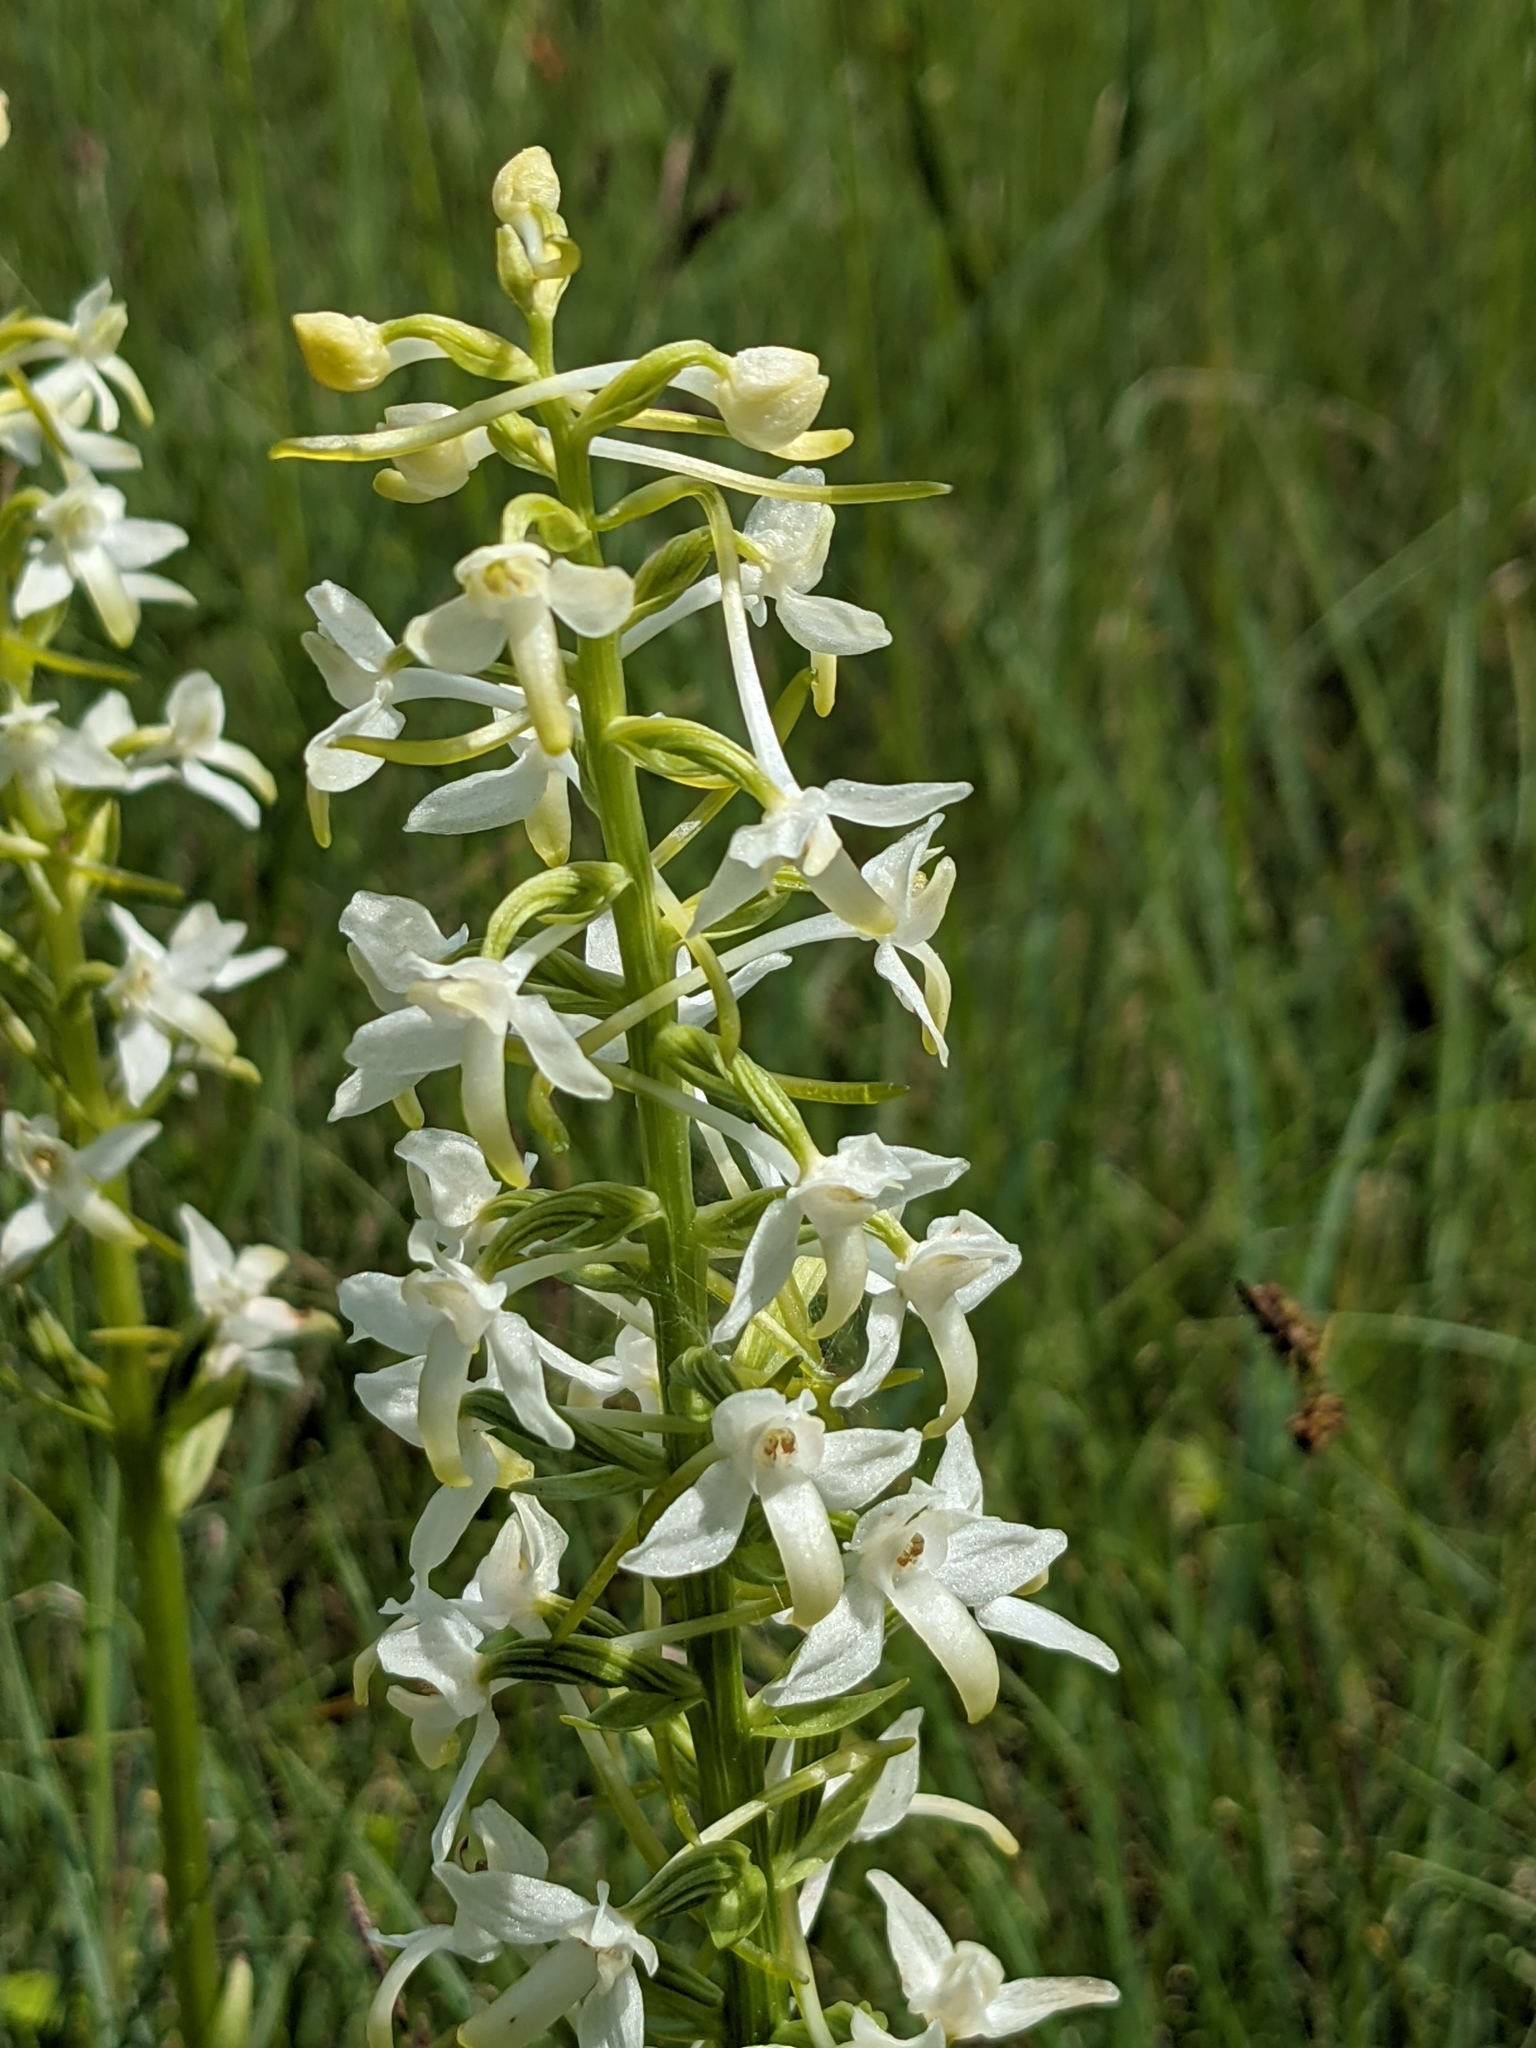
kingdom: Plantae
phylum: Tracheophyta
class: Liliopsida
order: Asparagales
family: Orchidaceae
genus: Platanthera
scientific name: Platanthera bifolia
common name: Lesser butterfly-orchid
